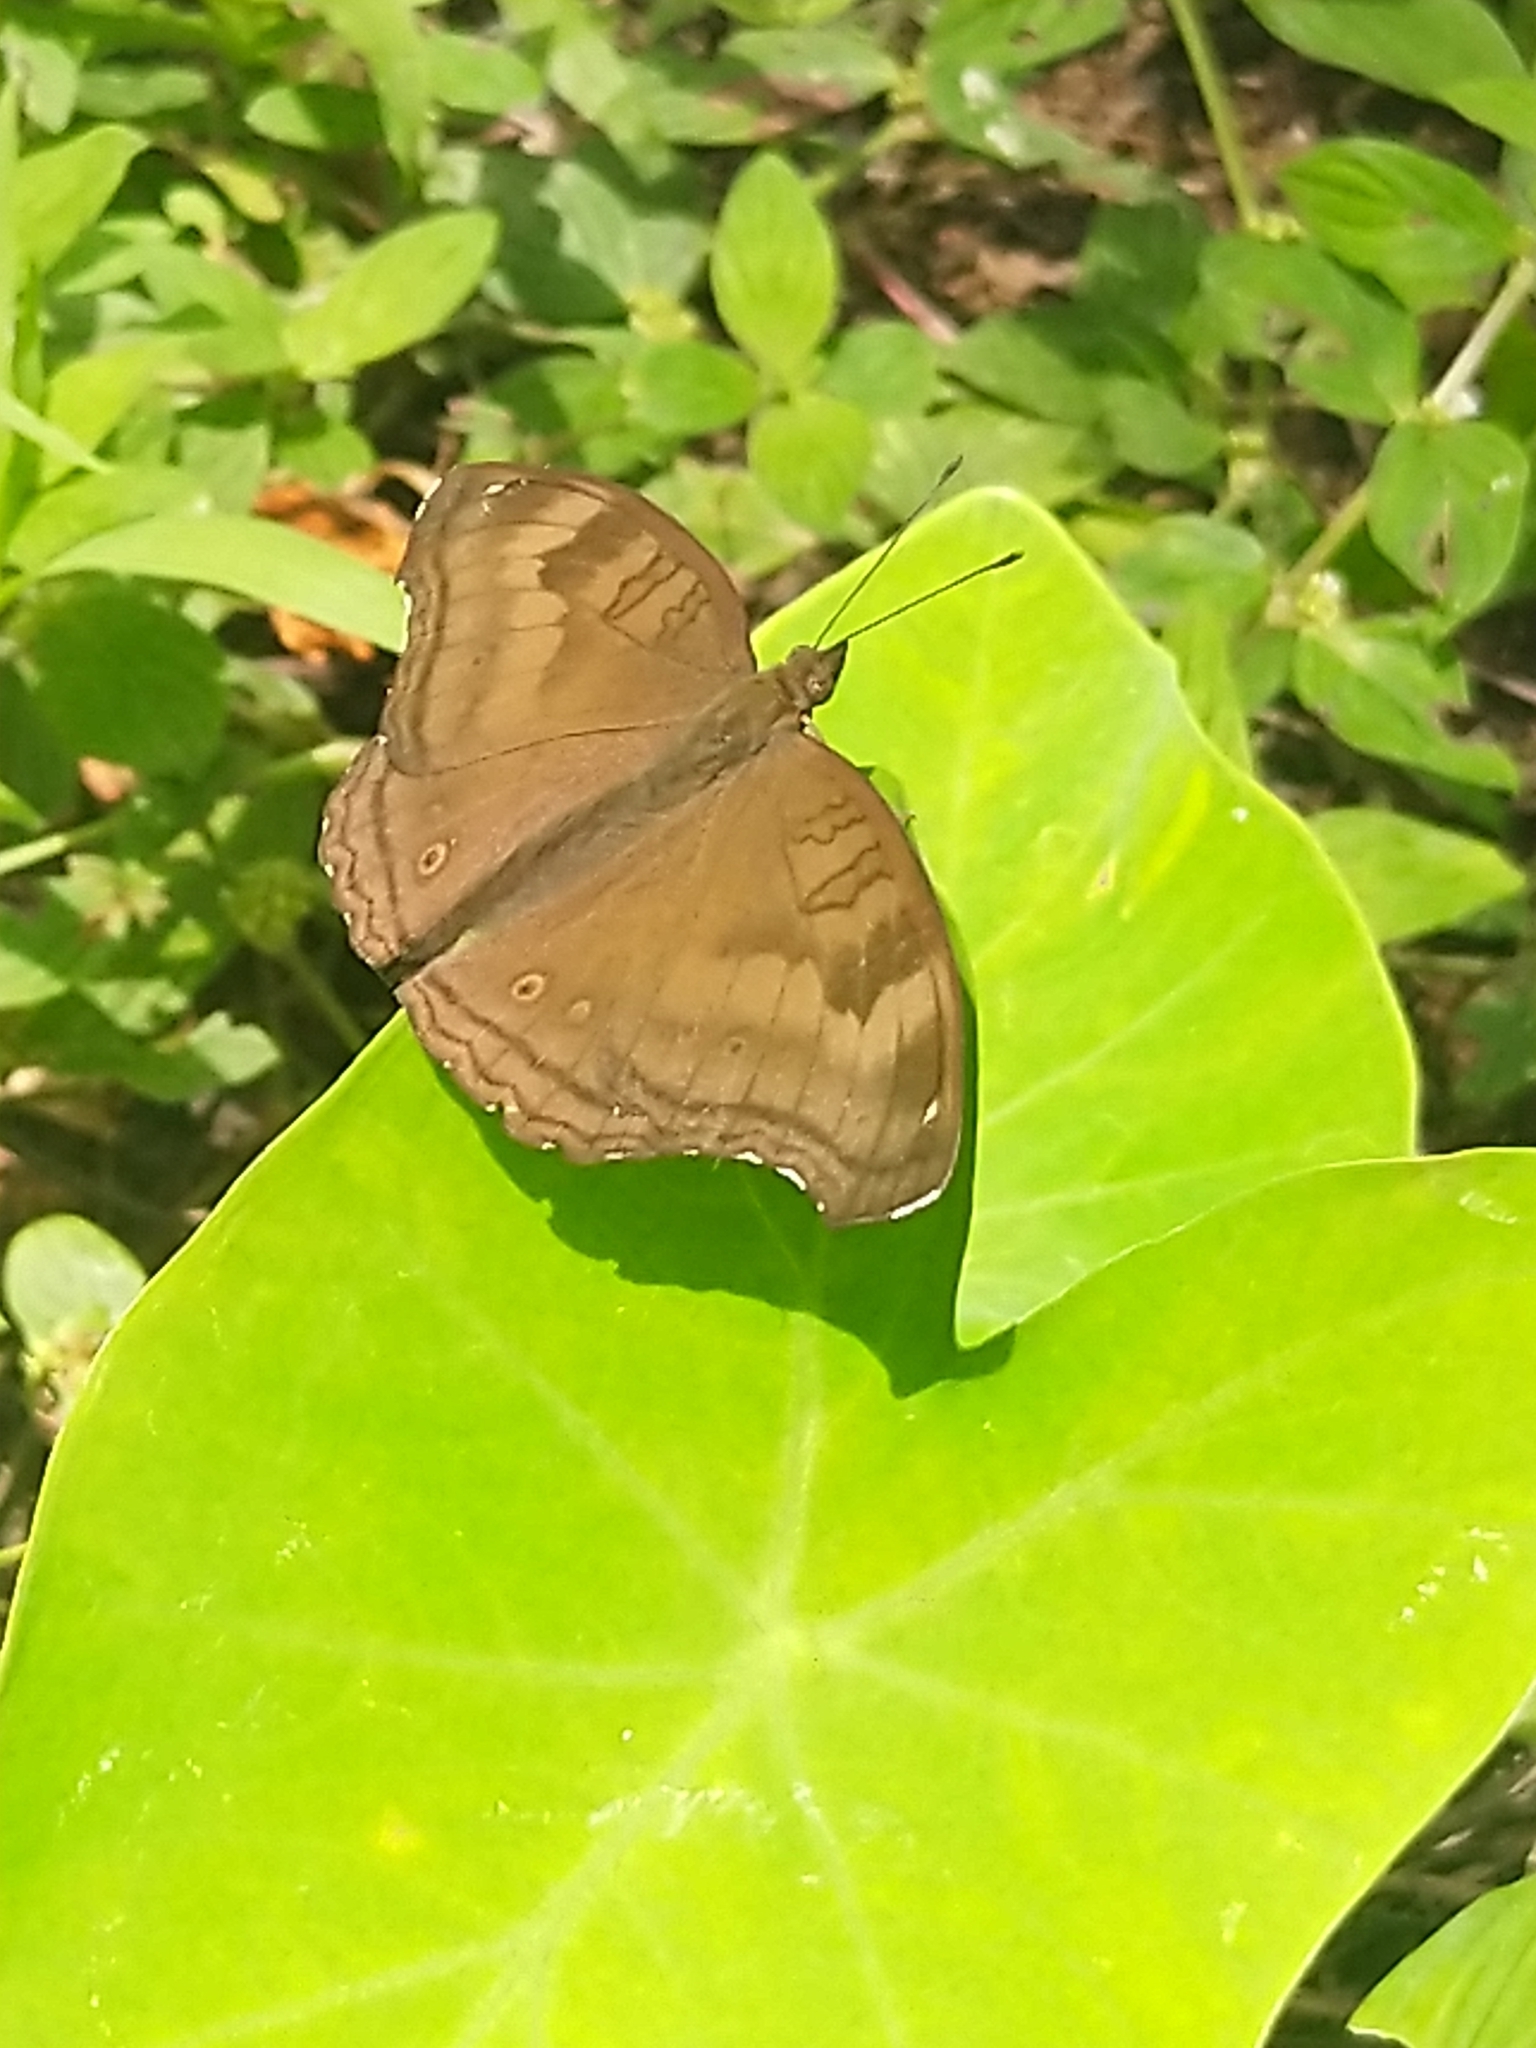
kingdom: Animalia
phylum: Arthropoda
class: Insecta
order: Lepidoptera
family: Nymphalidae
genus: Junonia
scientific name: Junonia iphita
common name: Chocolate pansy
